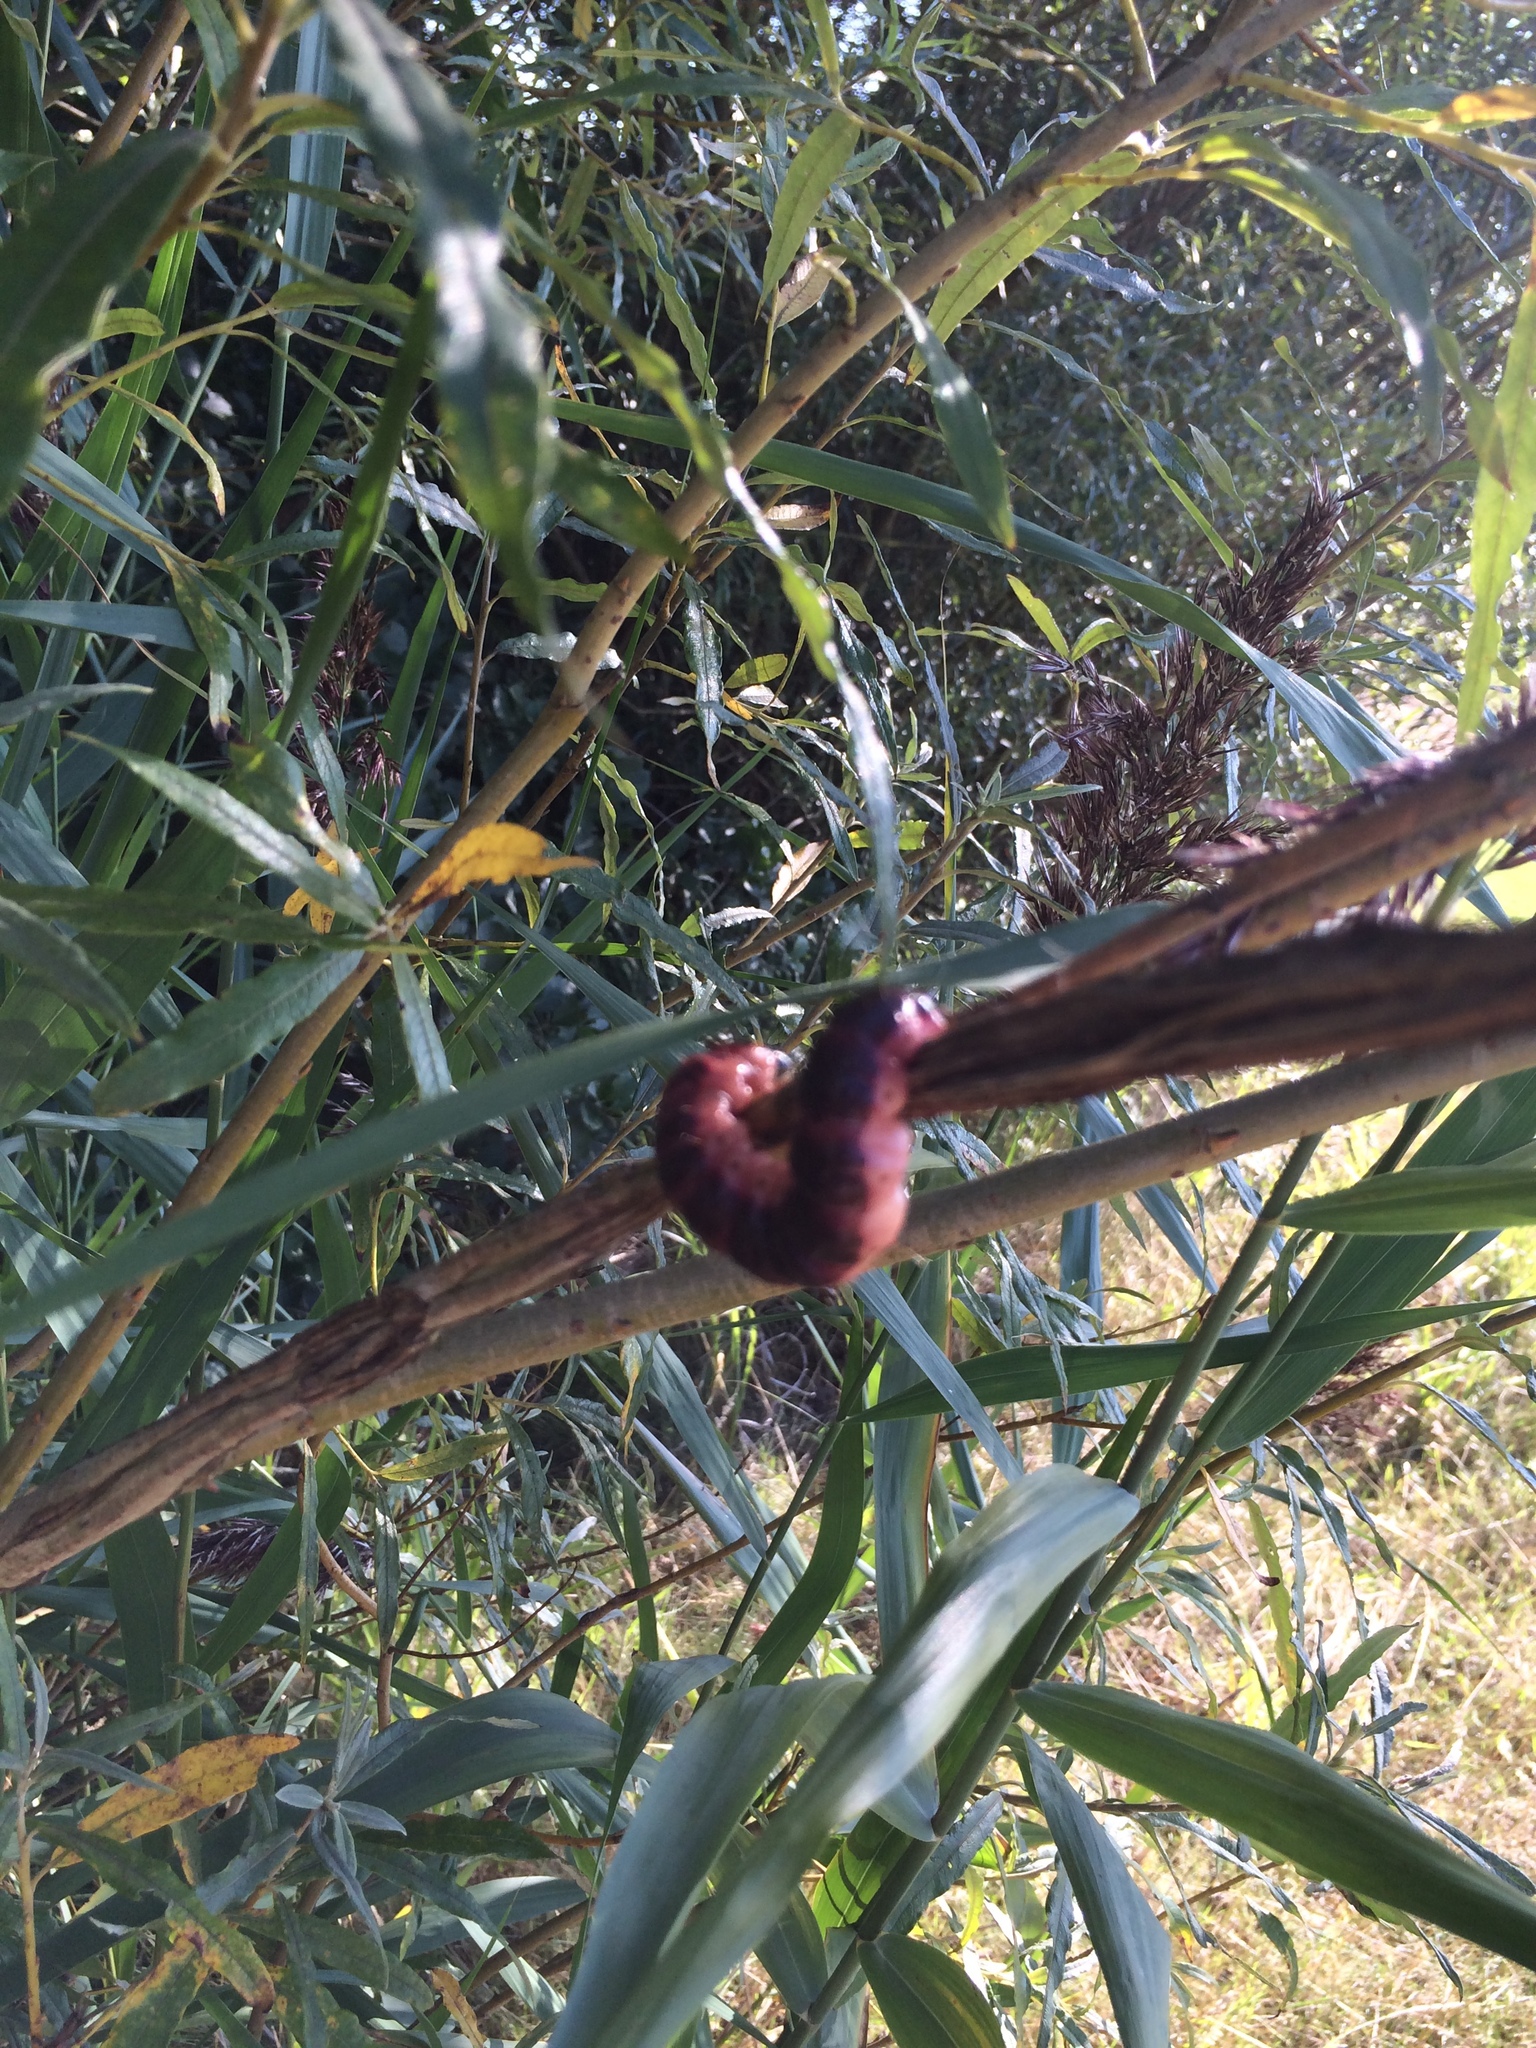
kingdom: Animalia
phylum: Arthropoda
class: Insecta
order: Lepidoptera
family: Cossidae
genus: Cossus
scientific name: Cossus cossus
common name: Goat moth
